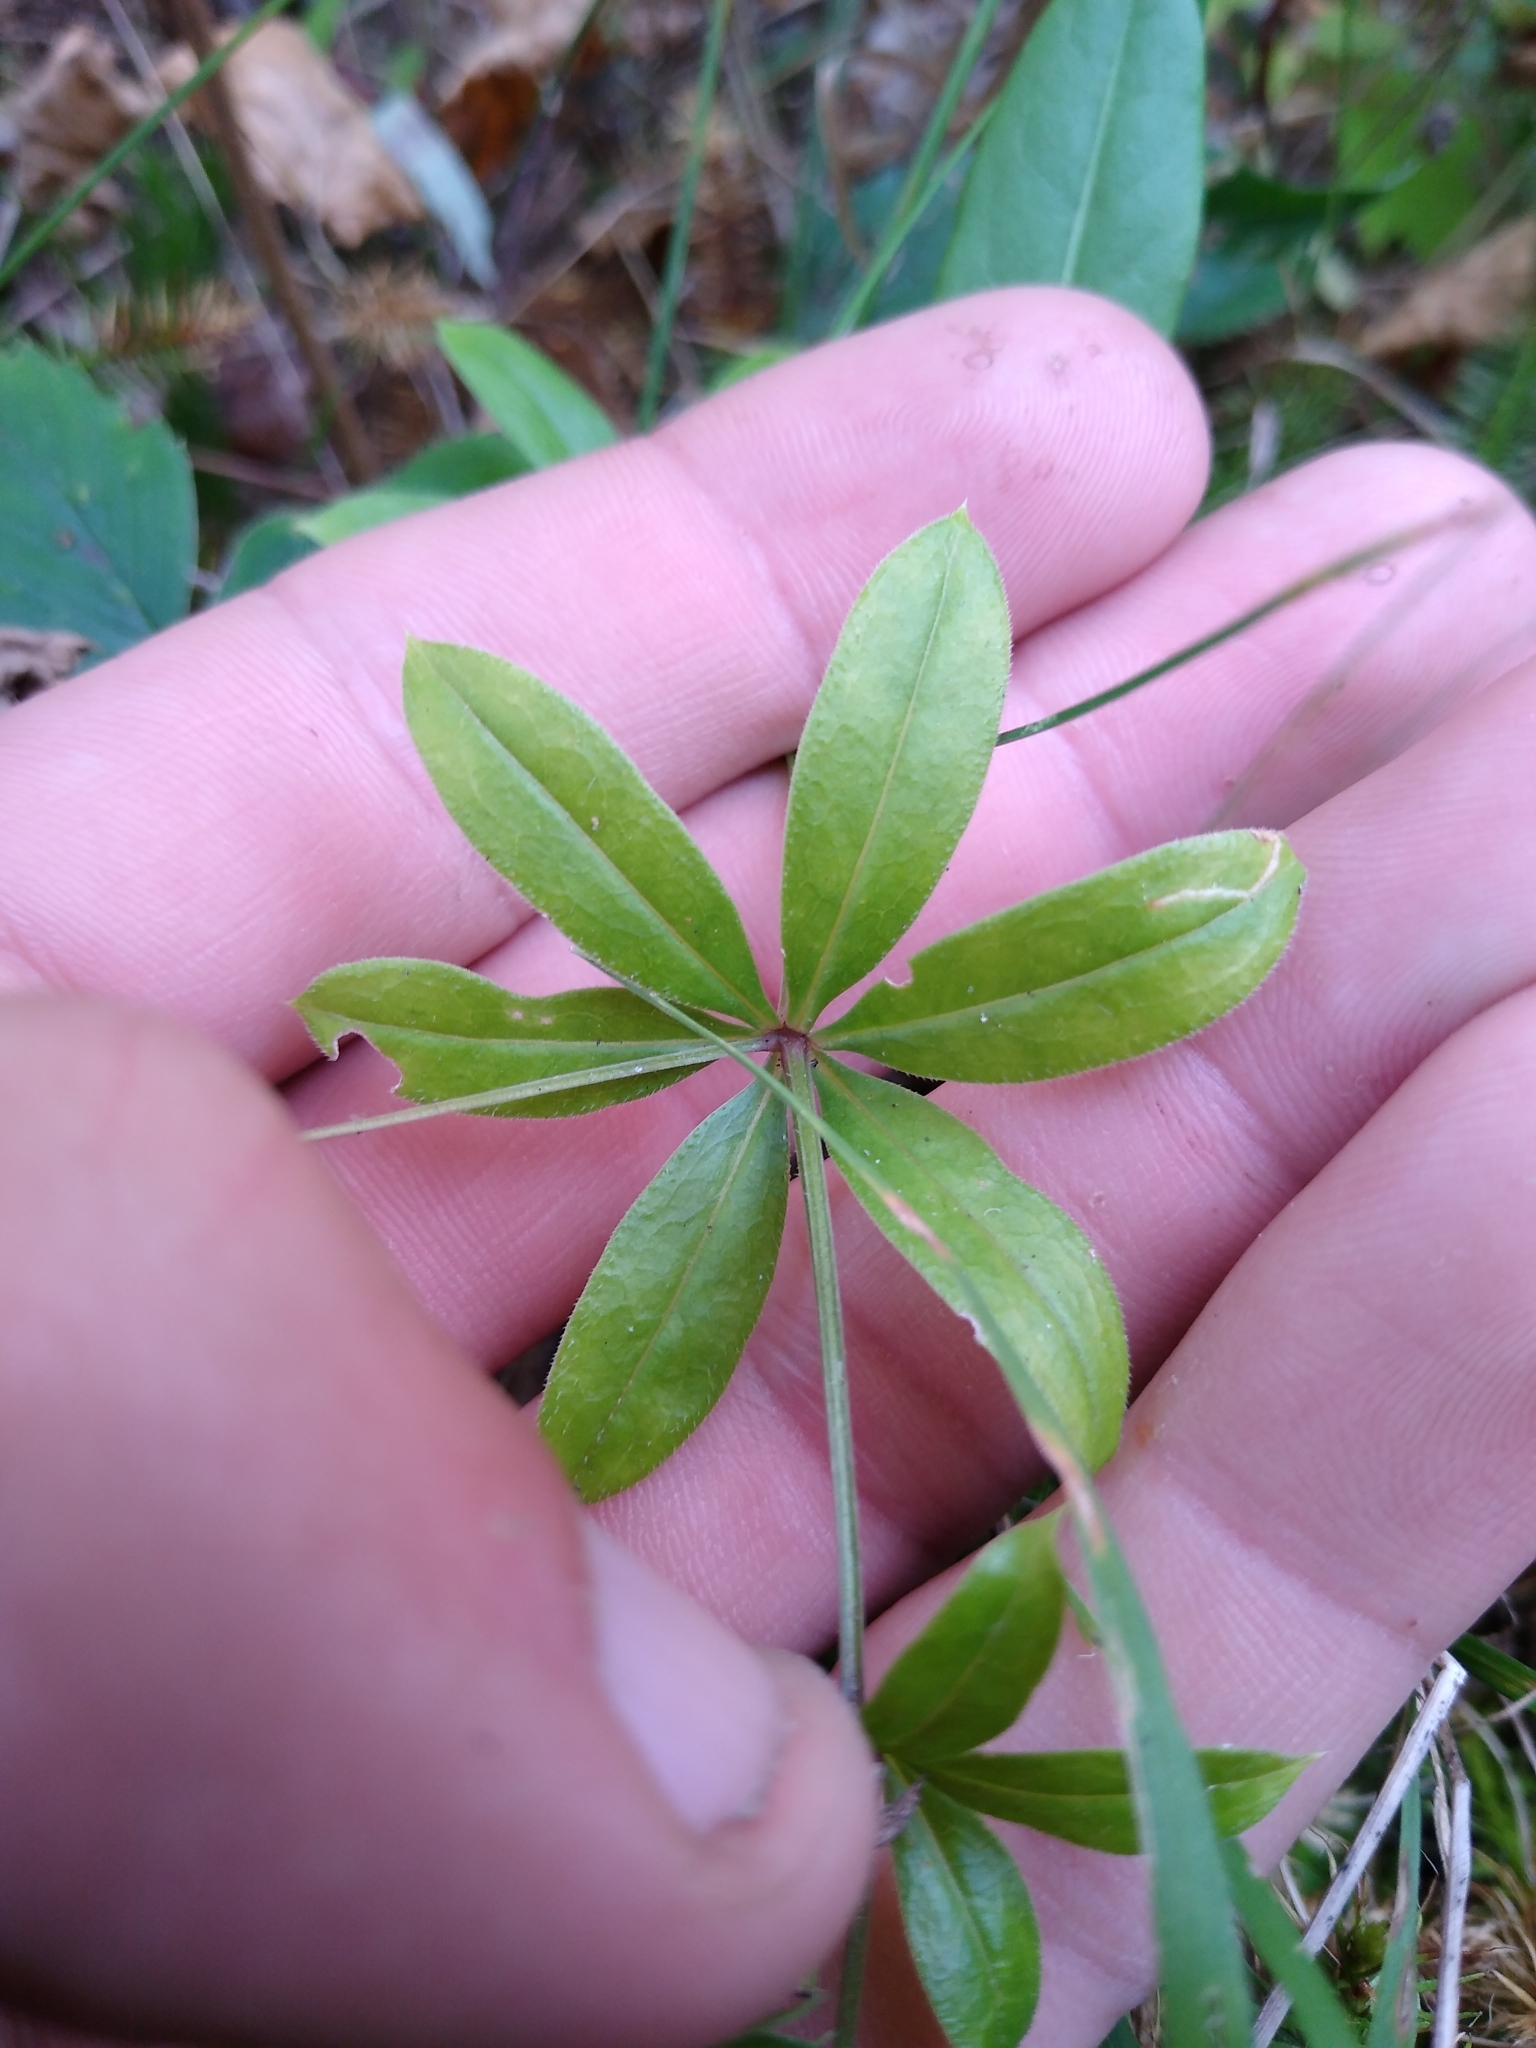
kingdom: Plantae
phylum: Tracheophyta
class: Magnoliopsida
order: Gentianales
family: Rubiaceae
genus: Galium
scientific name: Galium triflorum
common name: Fragrant bedstraw
